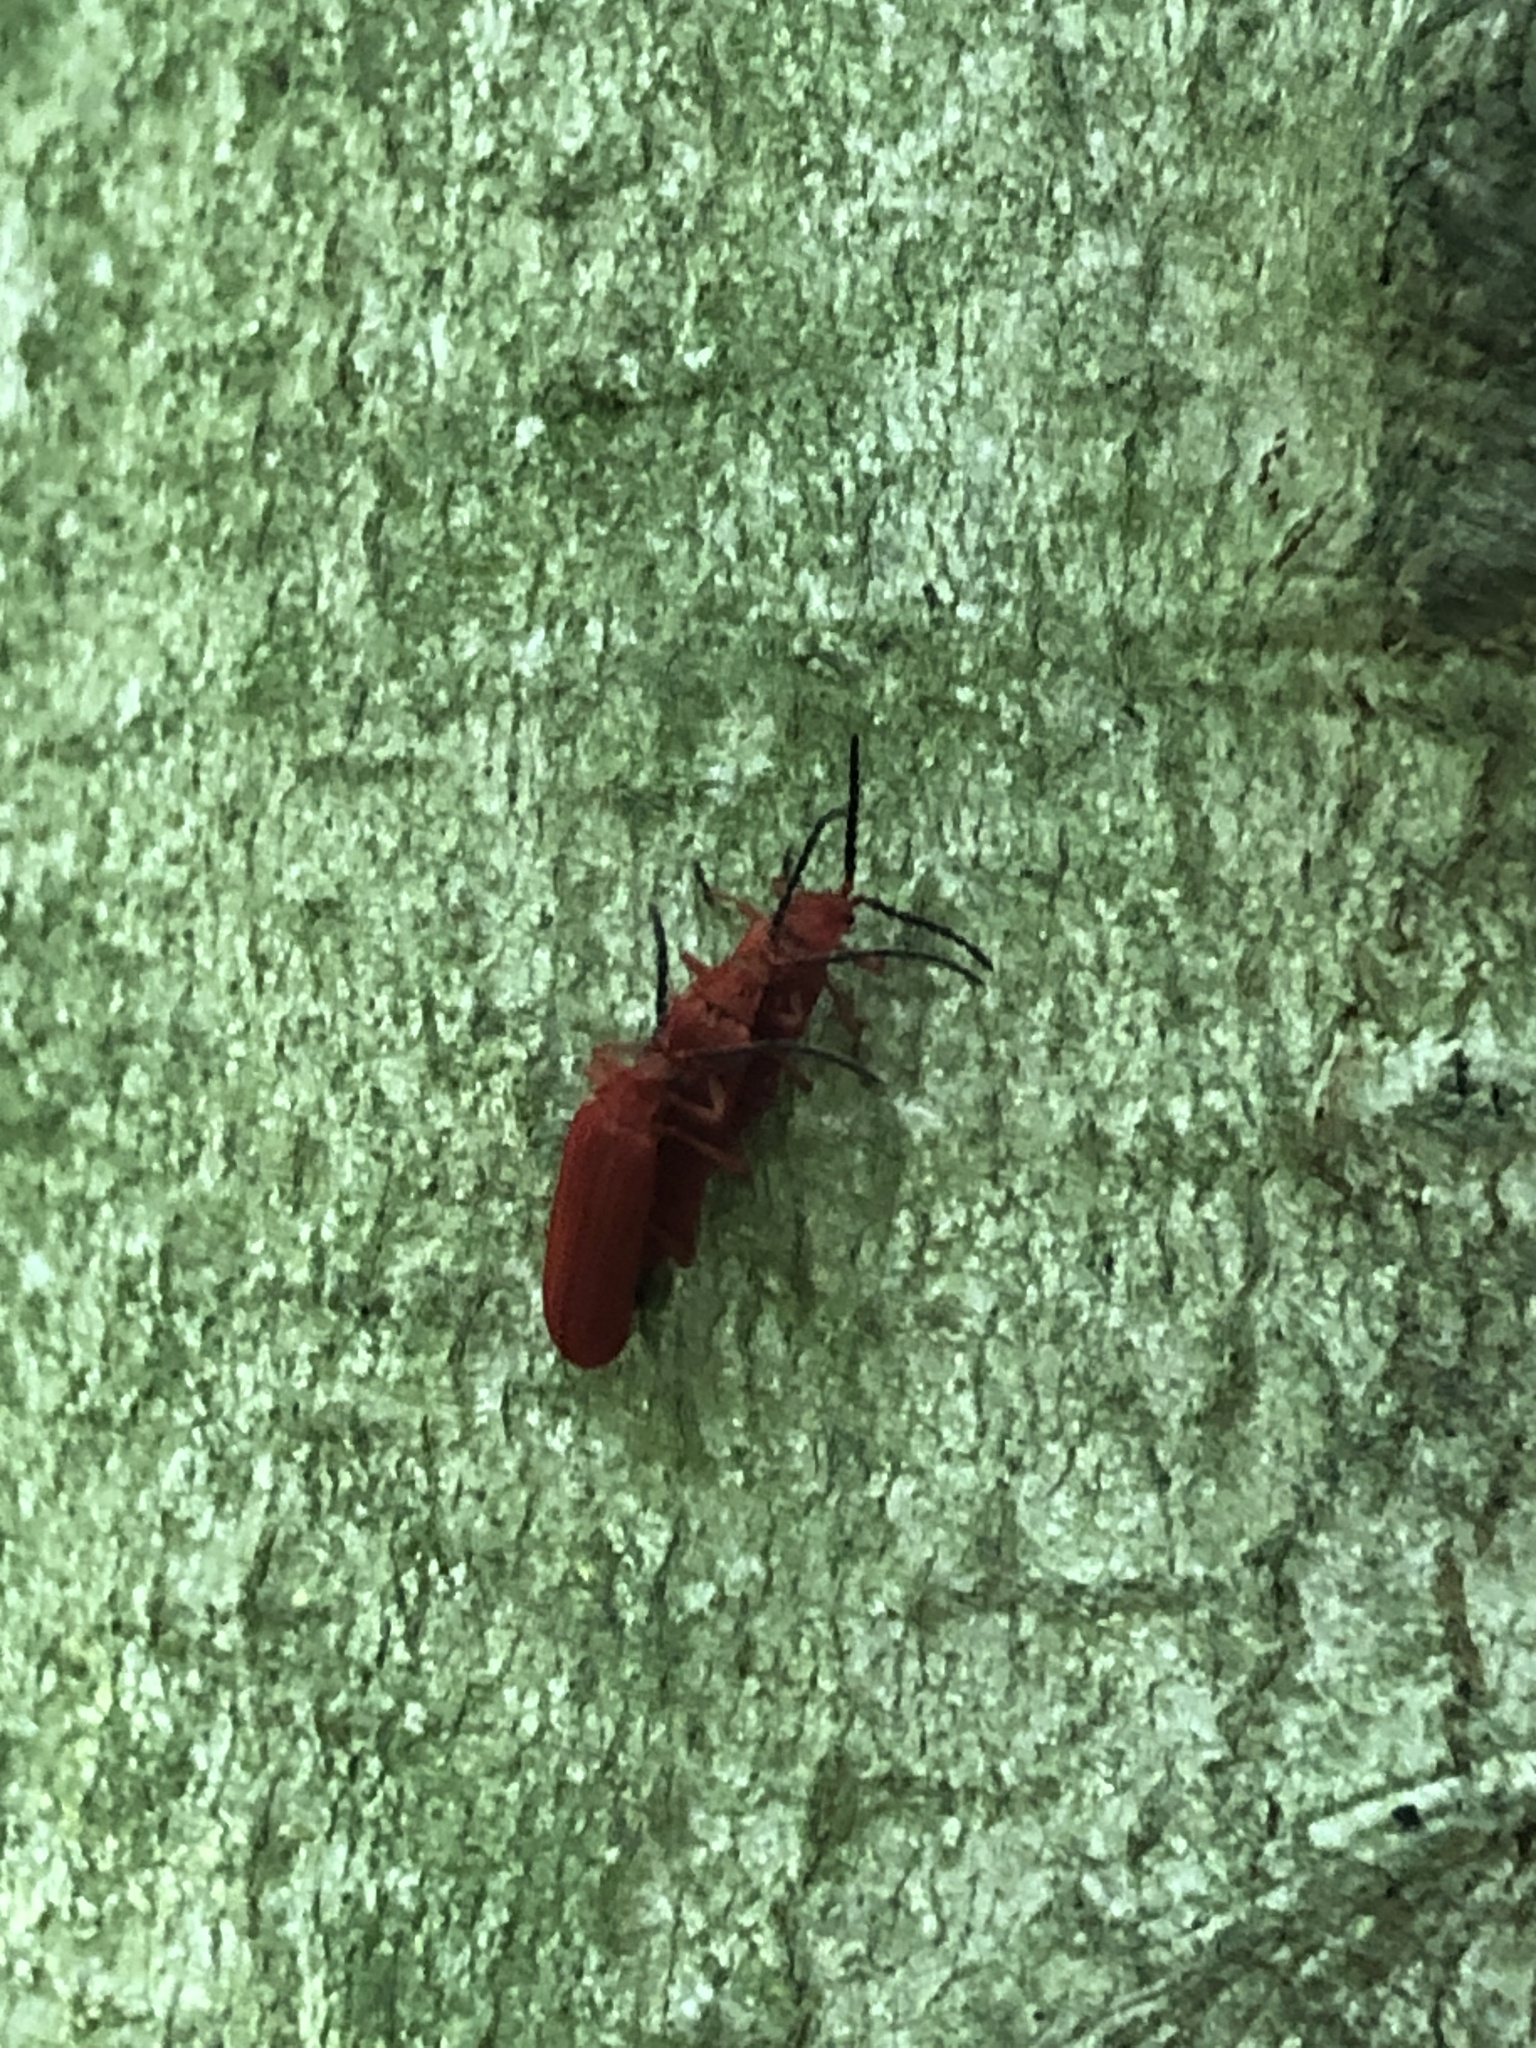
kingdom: Animalia
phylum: Arthropoda
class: Insecta
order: Coleoptera
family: Lycidae
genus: Punicealis
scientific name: Punicealis
